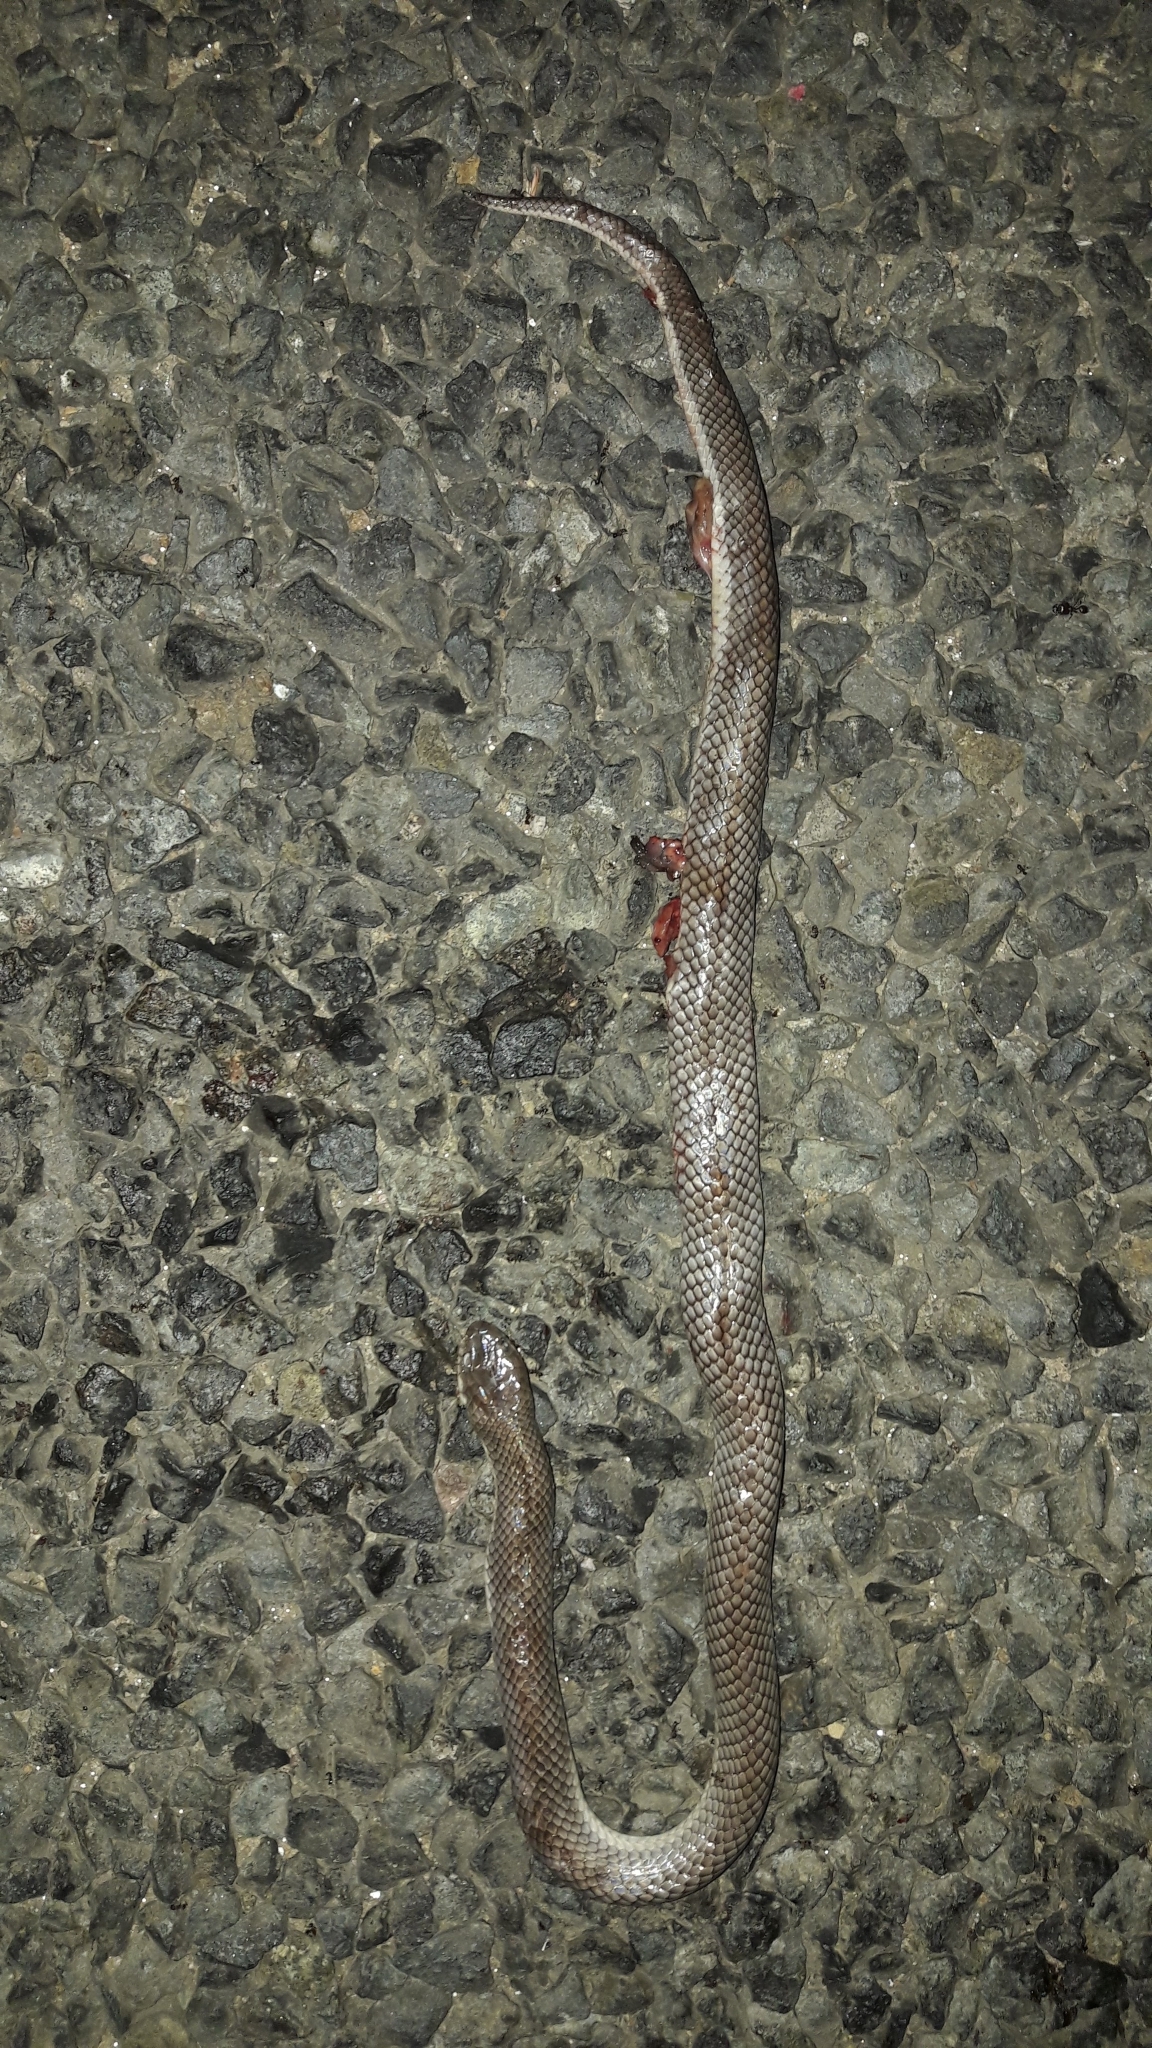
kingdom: Animalia
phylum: Chordata
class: Squamata
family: Elapidae
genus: Elapsoidea
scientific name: Elapsoidea sundevallii
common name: Sundevall's garter snake
